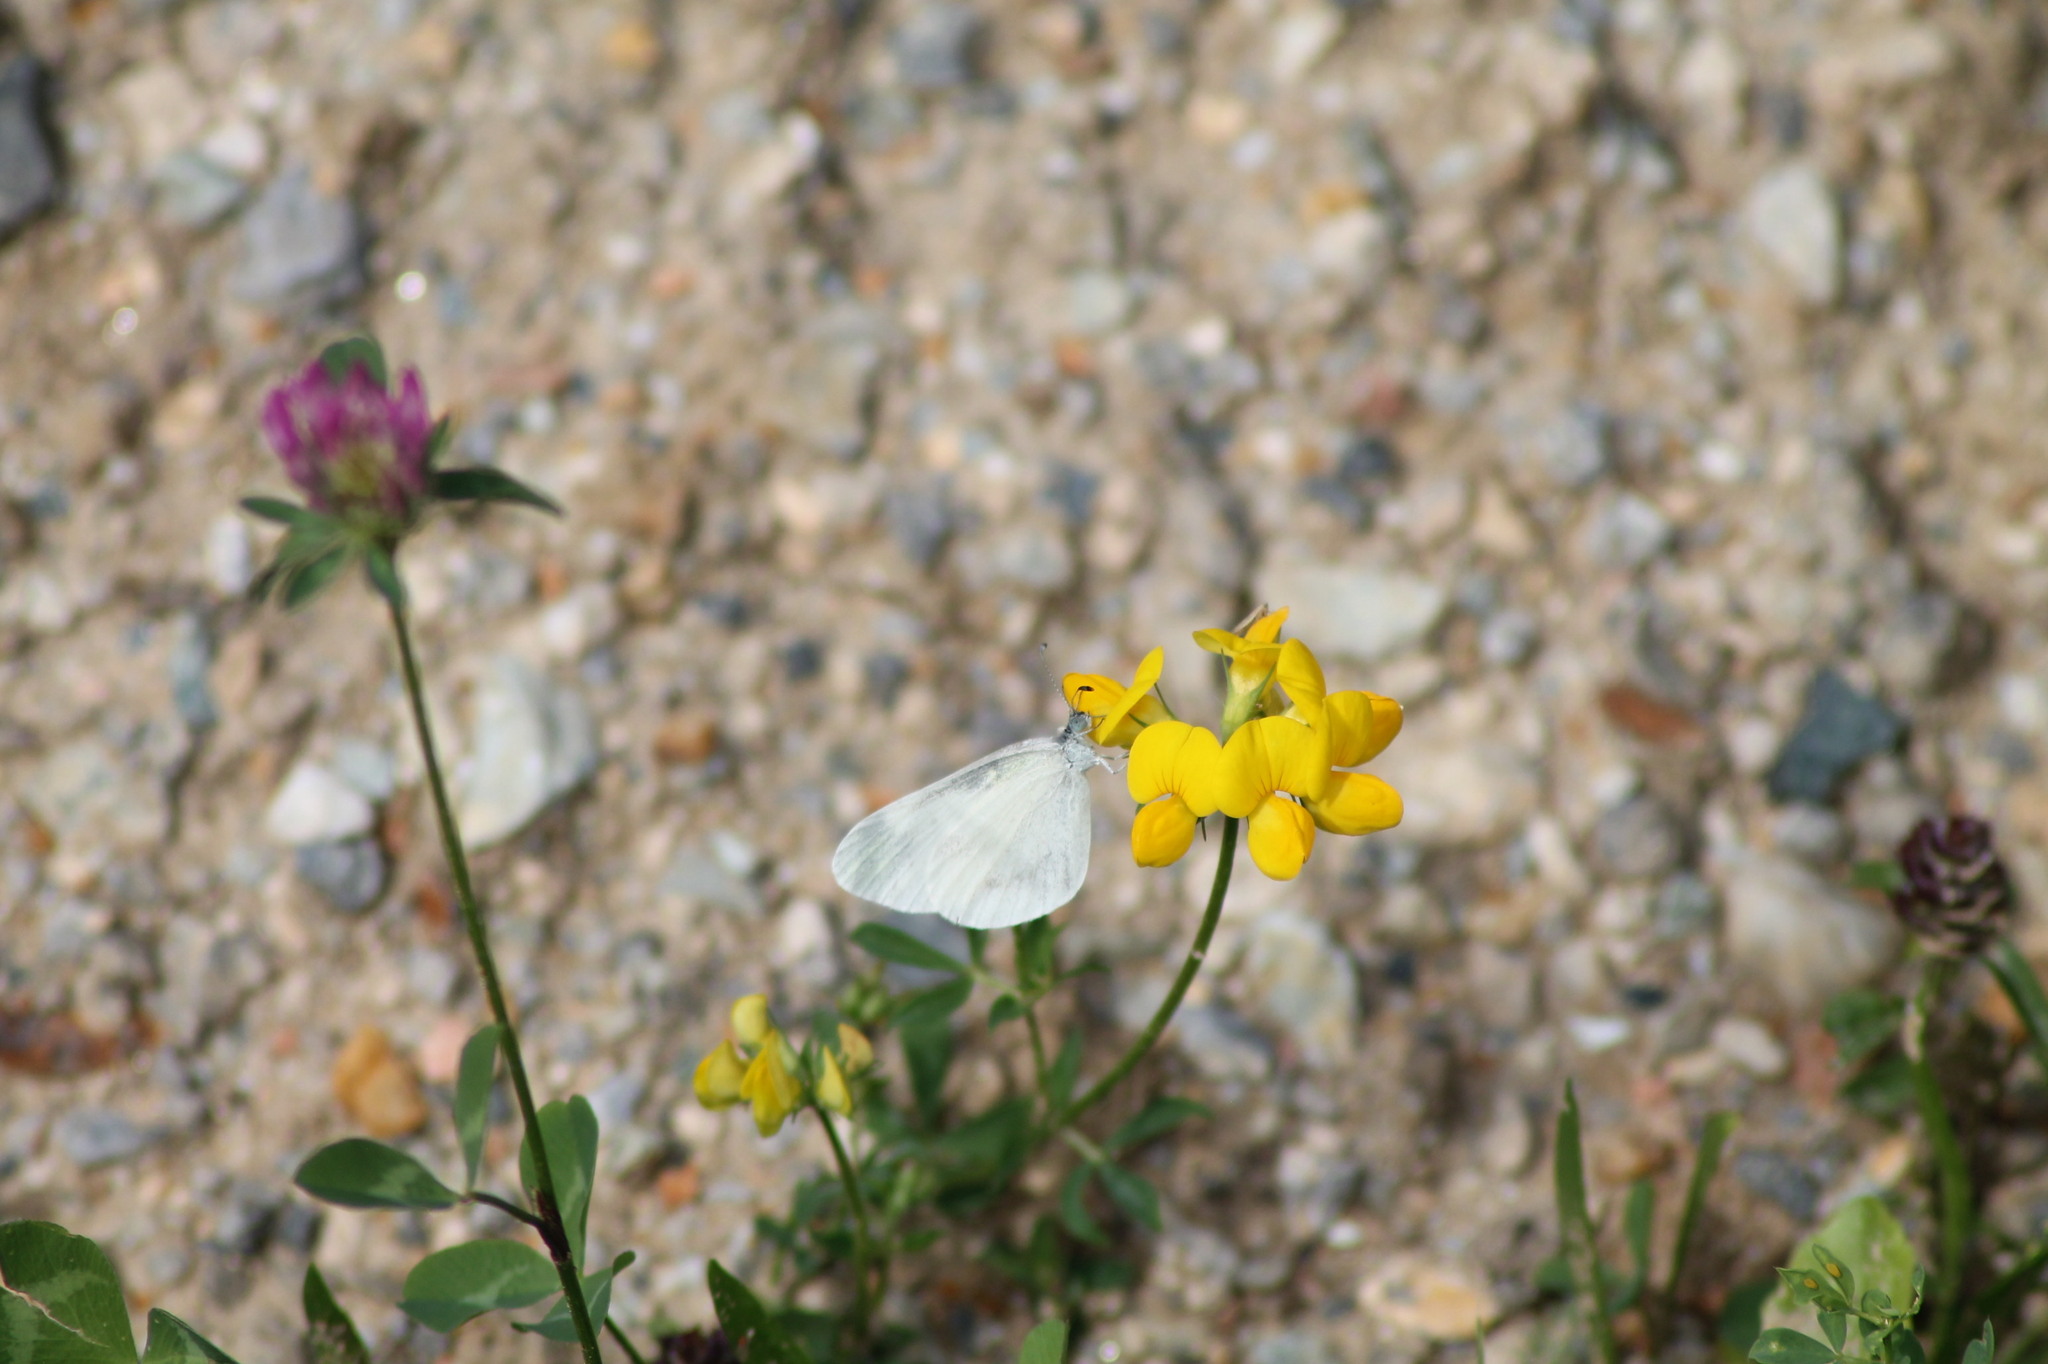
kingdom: Animalia
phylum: Arthropoda
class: Insecta
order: Lepidoptera
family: Pieridae
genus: Leptidea
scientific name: Leptidea
